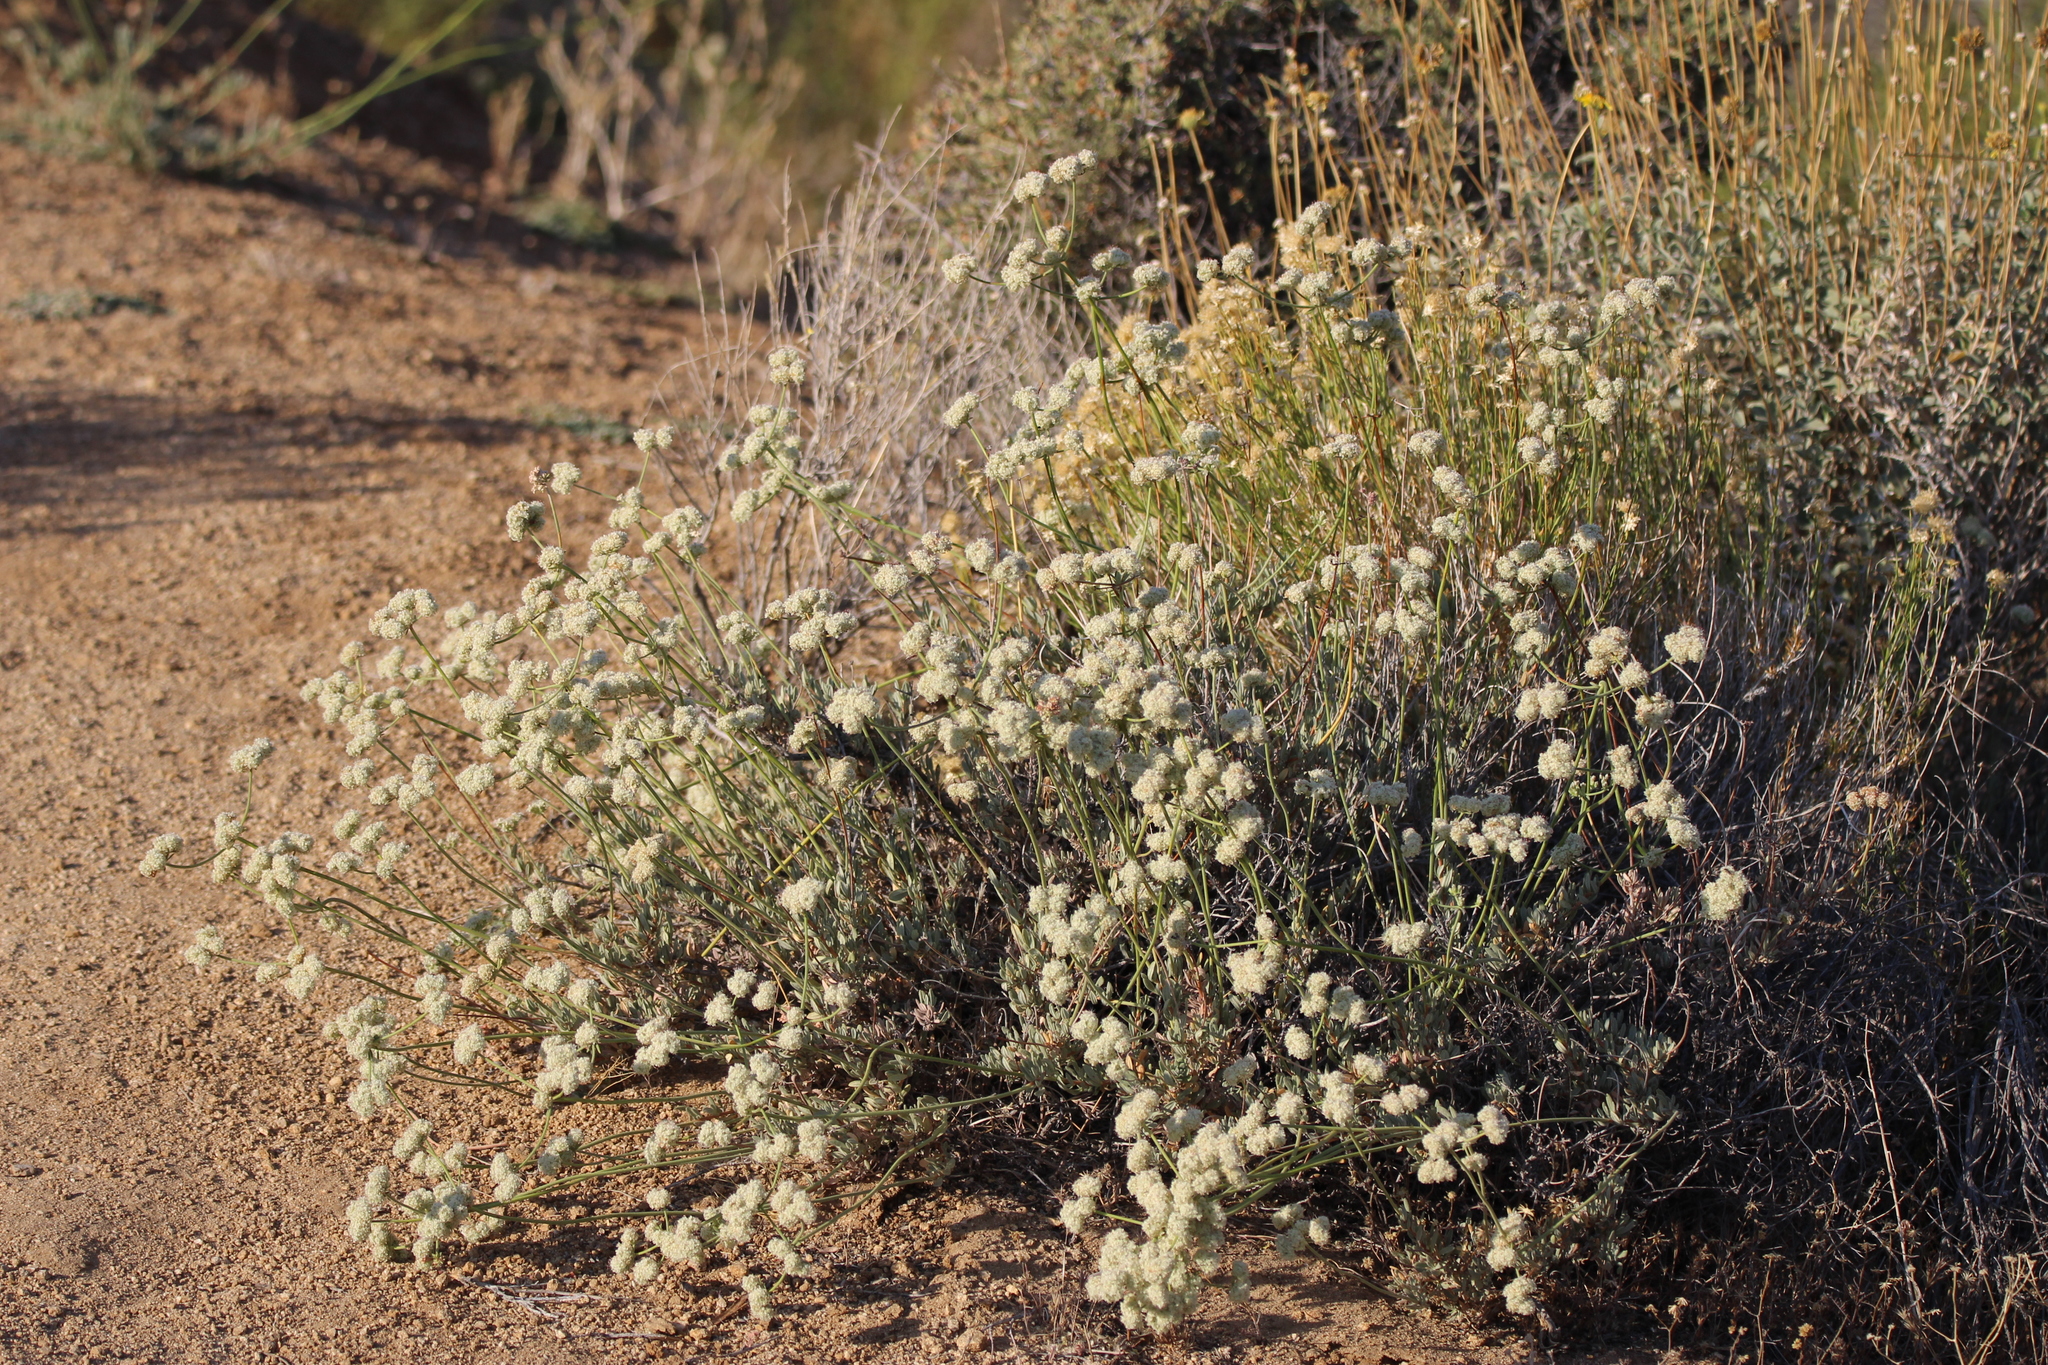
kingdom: Plantae
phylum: Tracheophyta
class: Magnoliopsida
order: Caryophyllales
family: Polygonaceae
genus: Eriogonum
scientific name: Eriogonum fasciculatum
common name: California wild buckwheat
